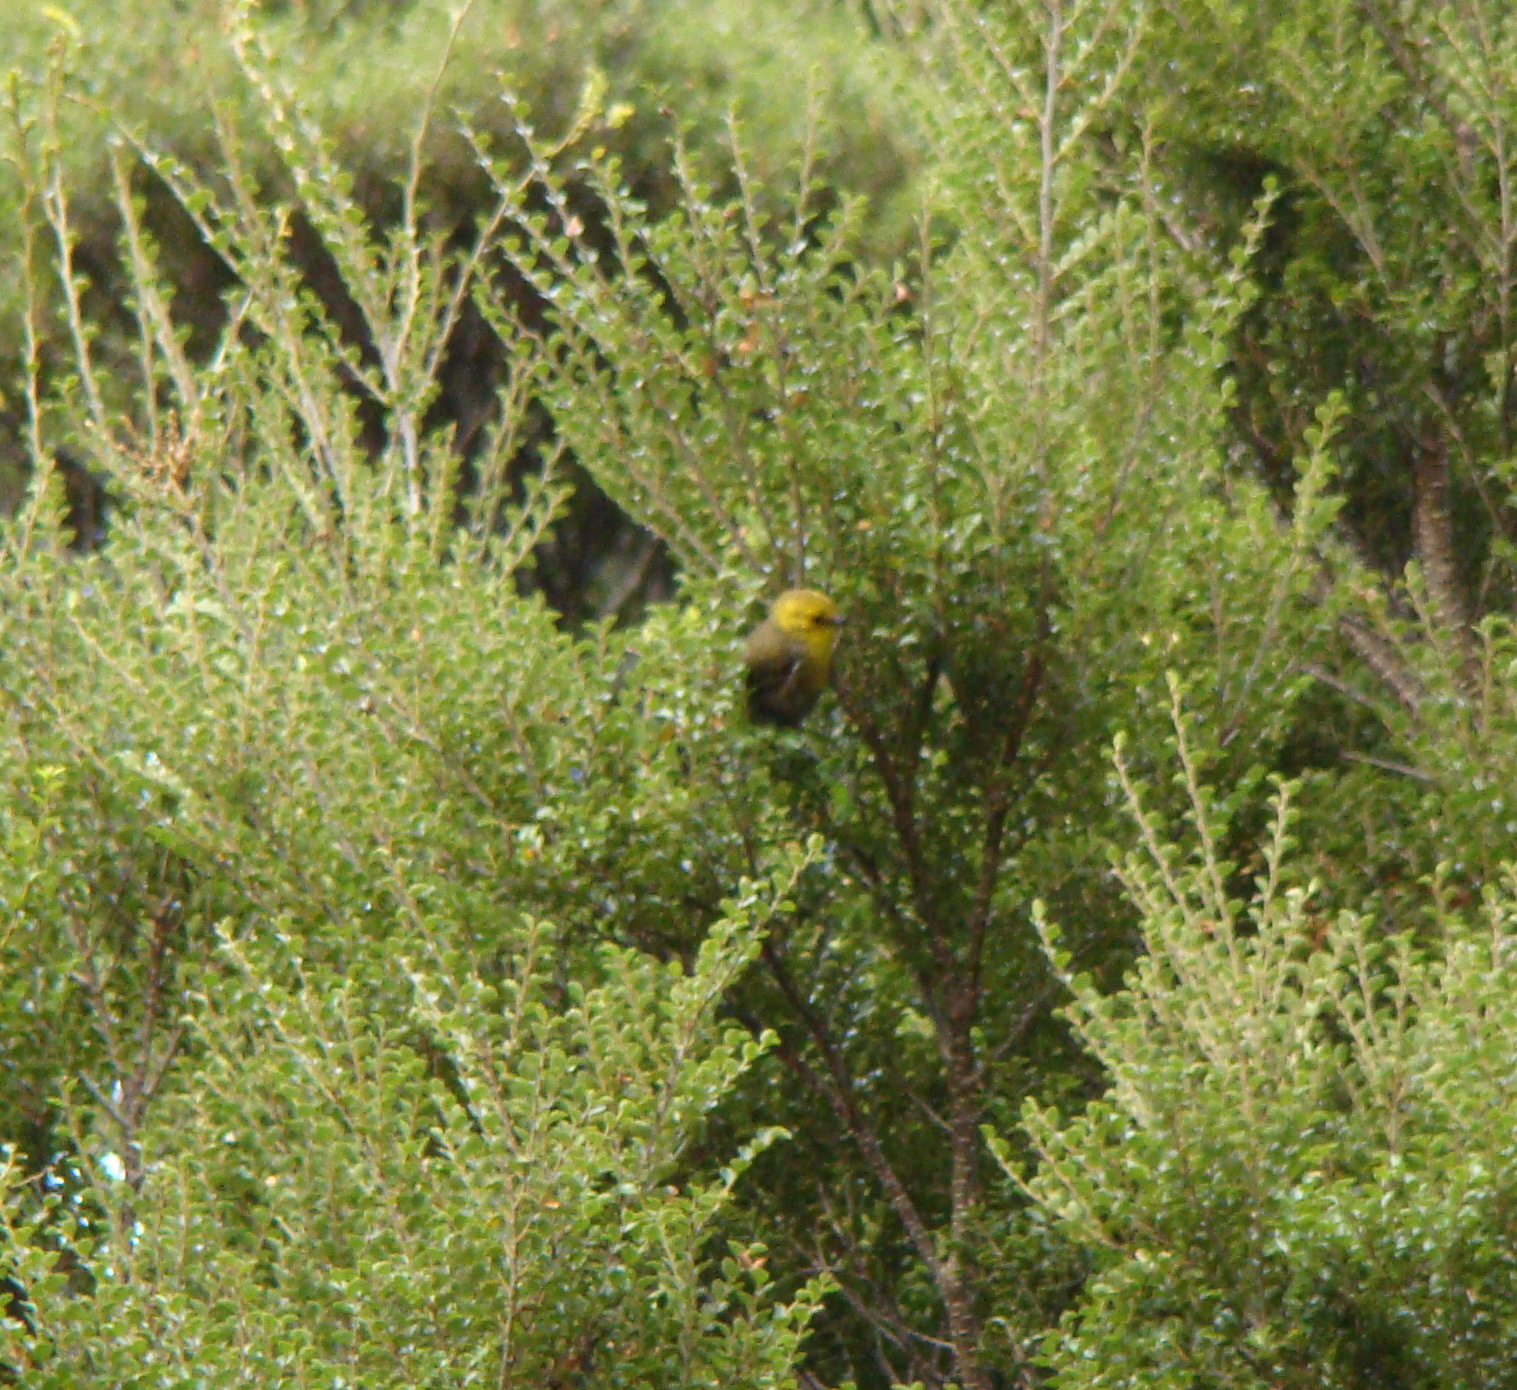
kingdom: Animalia
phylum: Chordata
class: Aves
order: Passeriformes
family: Acanthizidae
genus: Mohoua
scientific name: Mohoua ochrocephala
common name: Yellowhead
